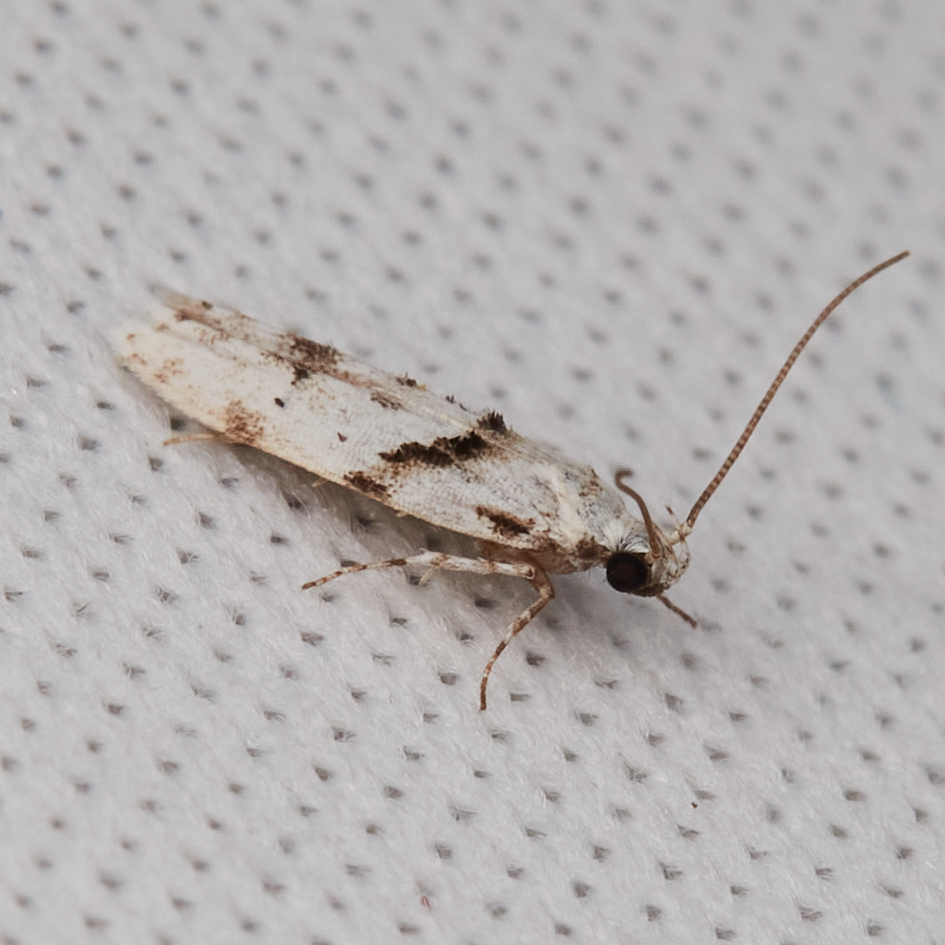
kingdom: Animalia
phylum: Arthropoda
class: Insecta
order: Lepidoptera
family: Gelechiidae
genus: Arogalea
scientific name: Arogalea cristifasciella
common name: White stripe-backed moth
